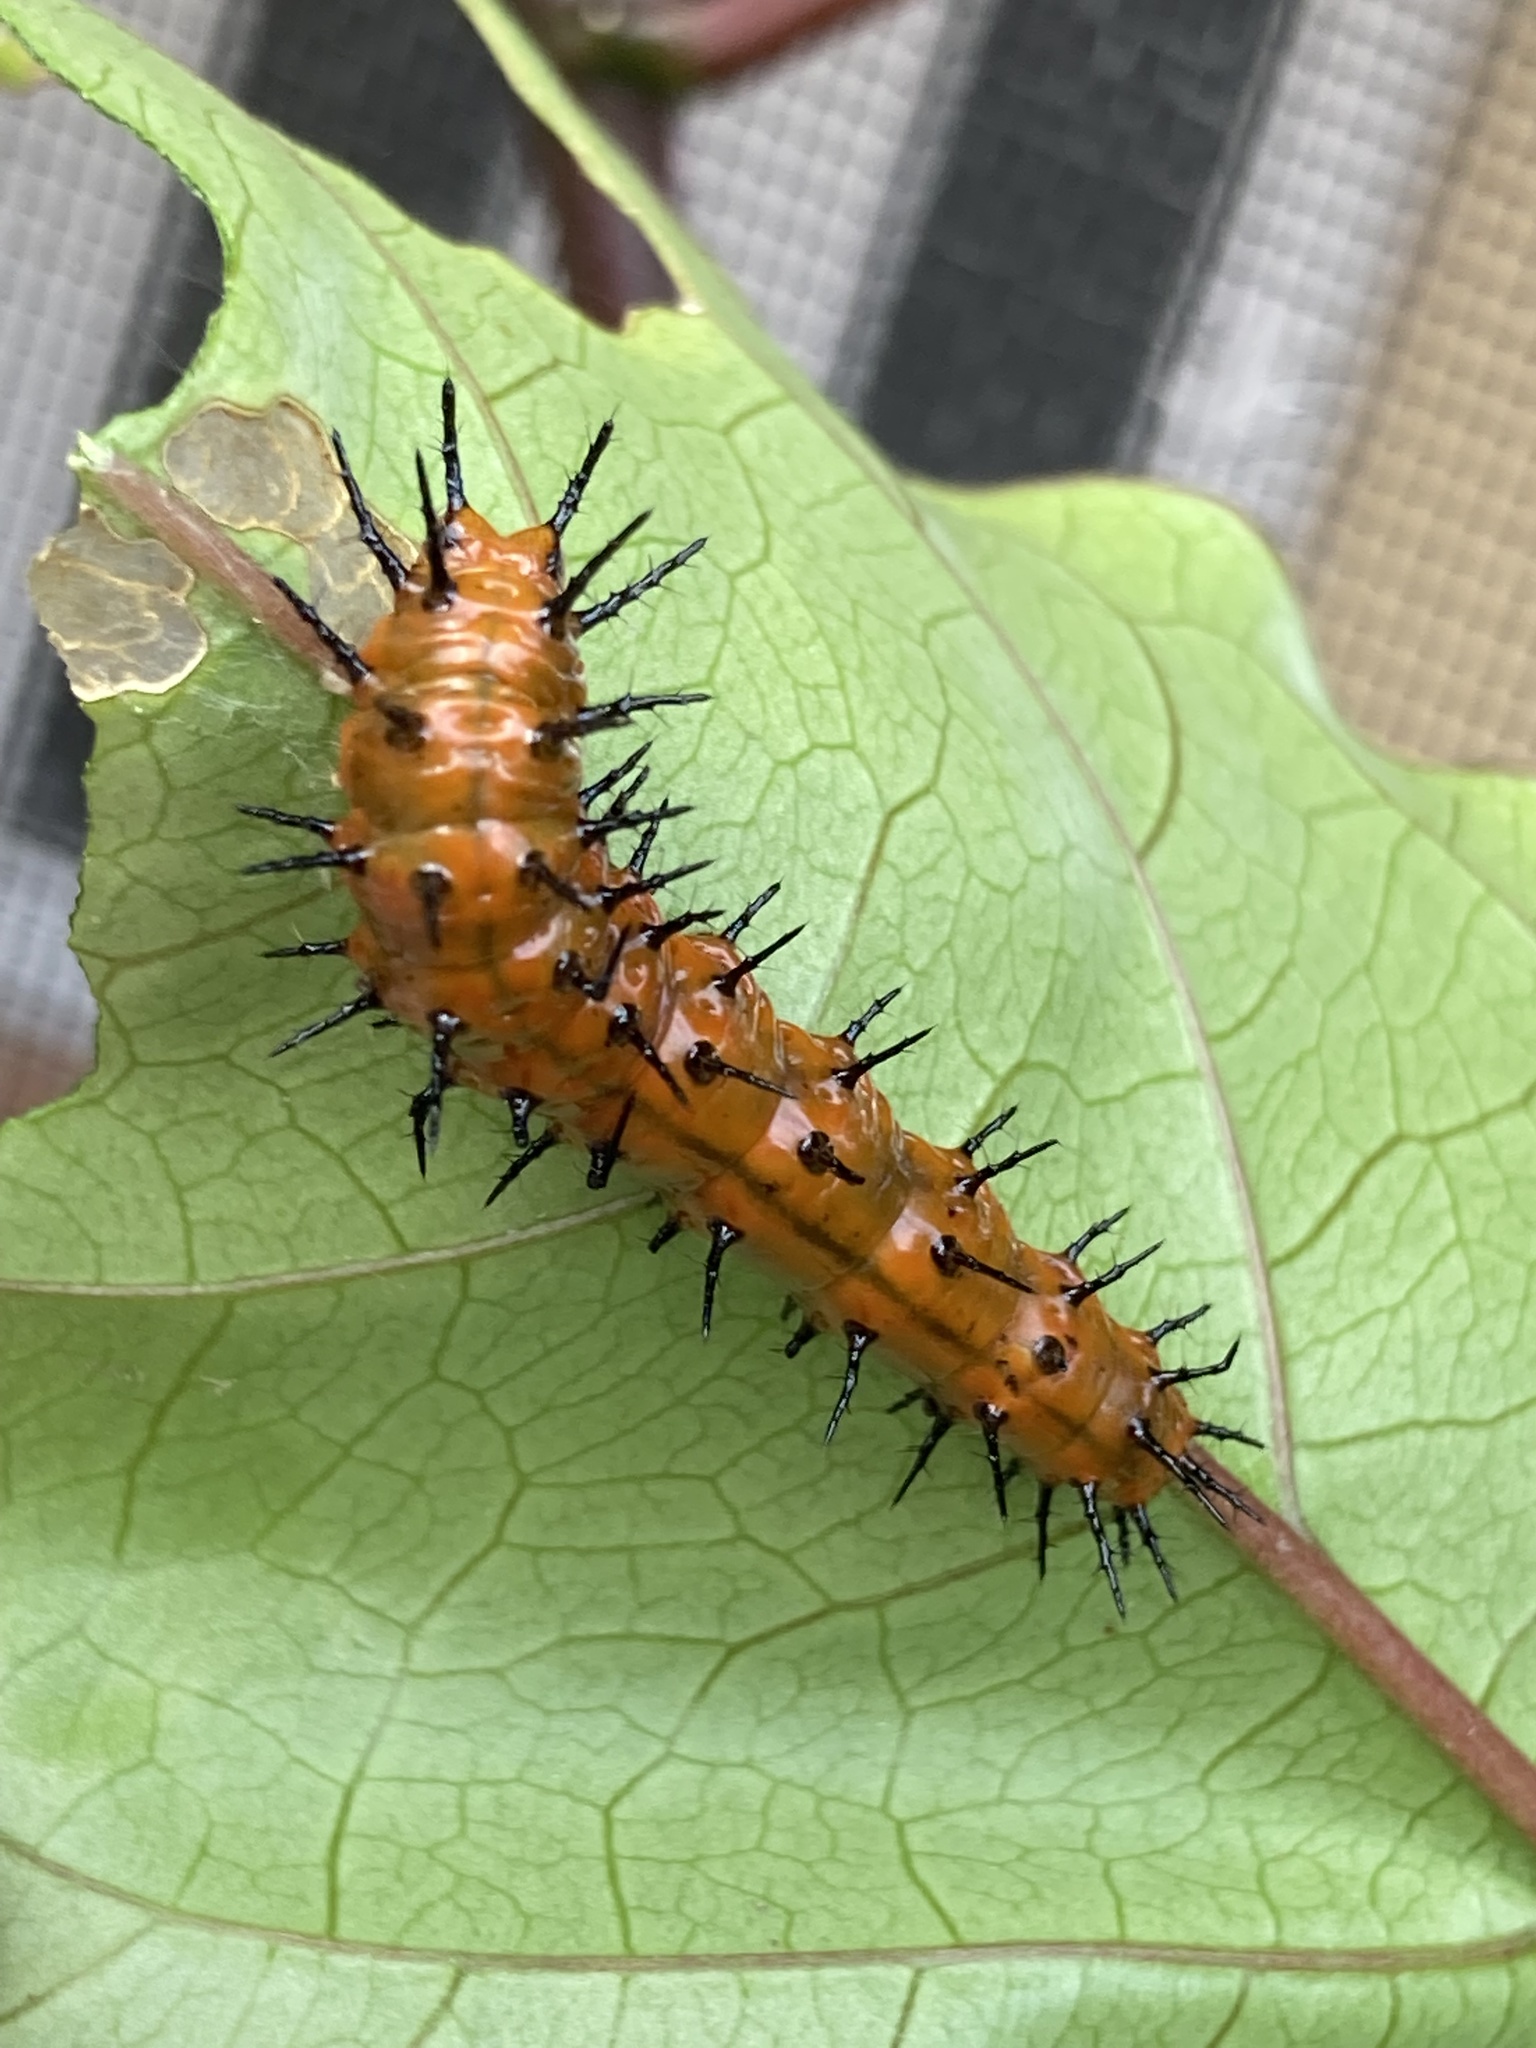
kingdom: Animalia
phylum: Arthropoda
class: Insecta
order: Lepidoptera
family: Nymphalidae
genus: Dione
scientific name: Dione vanillae
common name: Gulf fritillary
